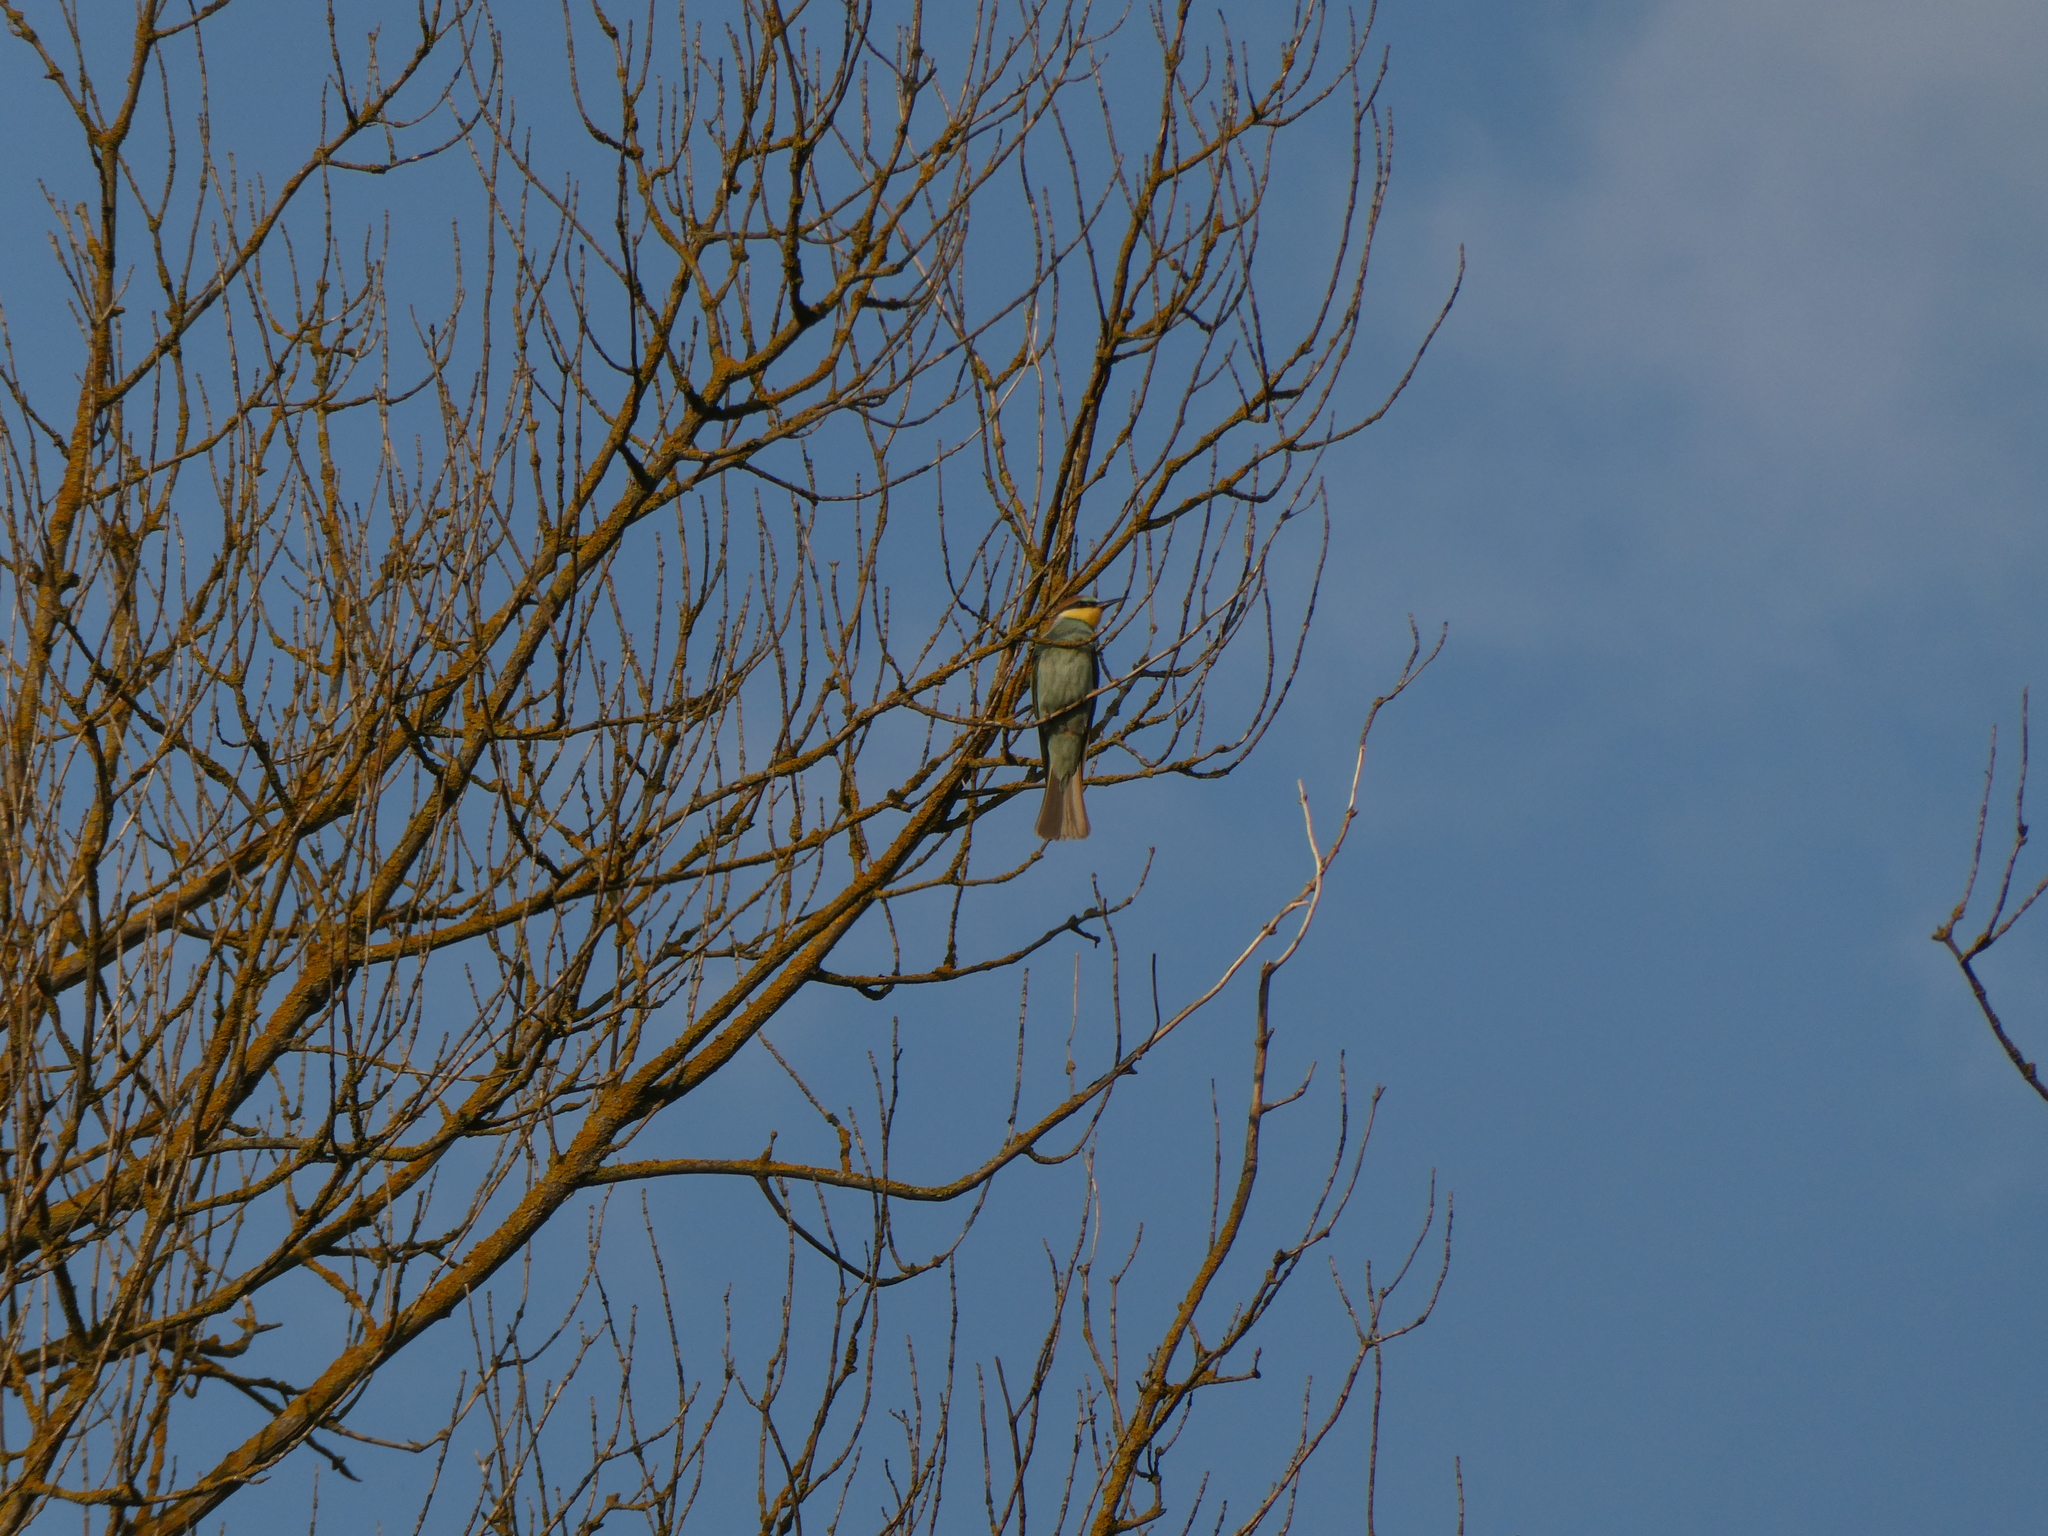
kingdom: Animalia
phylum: Chordata
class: Aves
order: Coraciiformes
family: Meropidae
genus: Merops
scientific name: Merops apiaster
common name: European bee-eater
